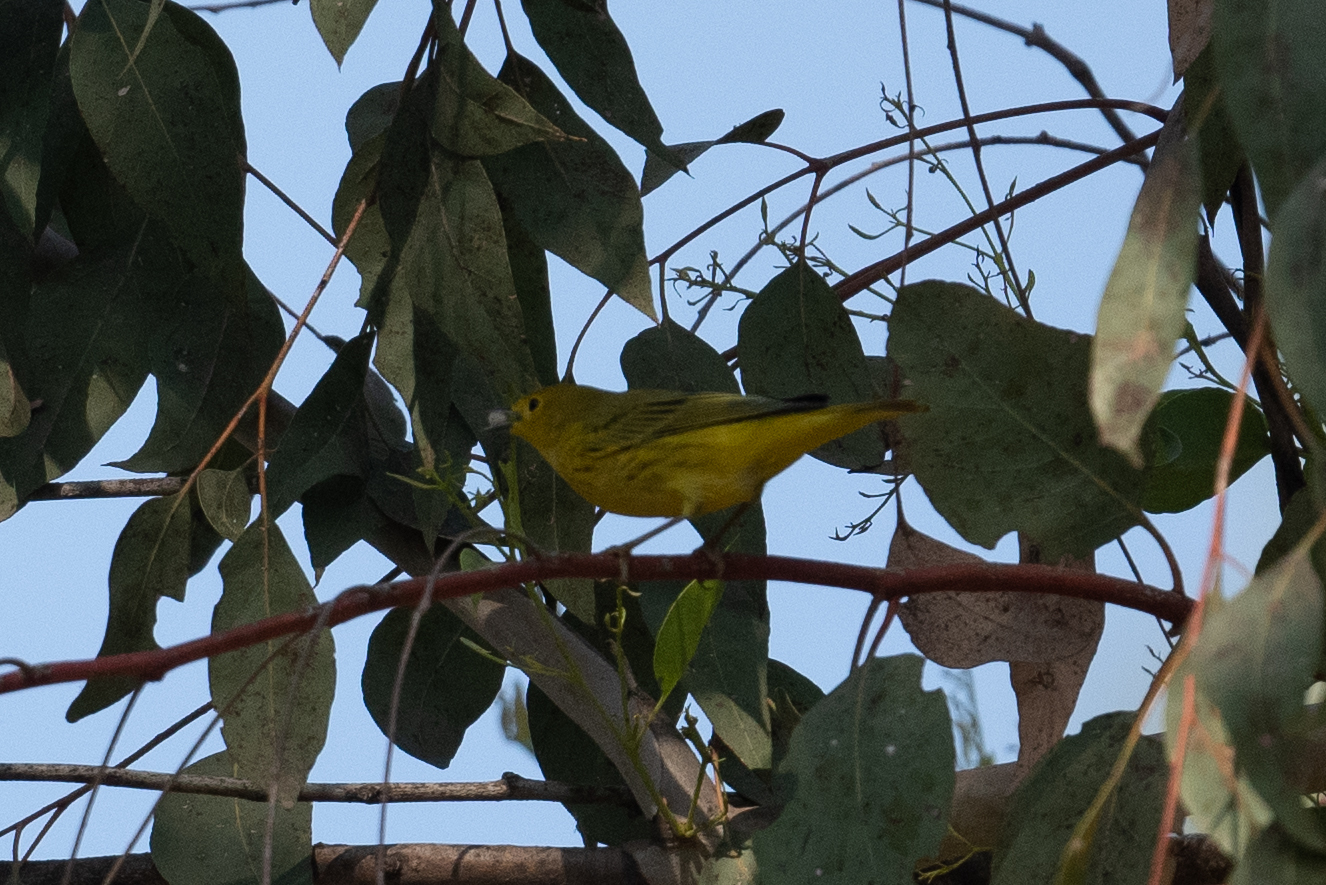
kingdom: Animalia
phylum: Chordata
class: Aves
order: Passeriformes
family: Parulidae
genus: Setophaga
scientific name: Setophaga petechia
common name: Yellow warbler
